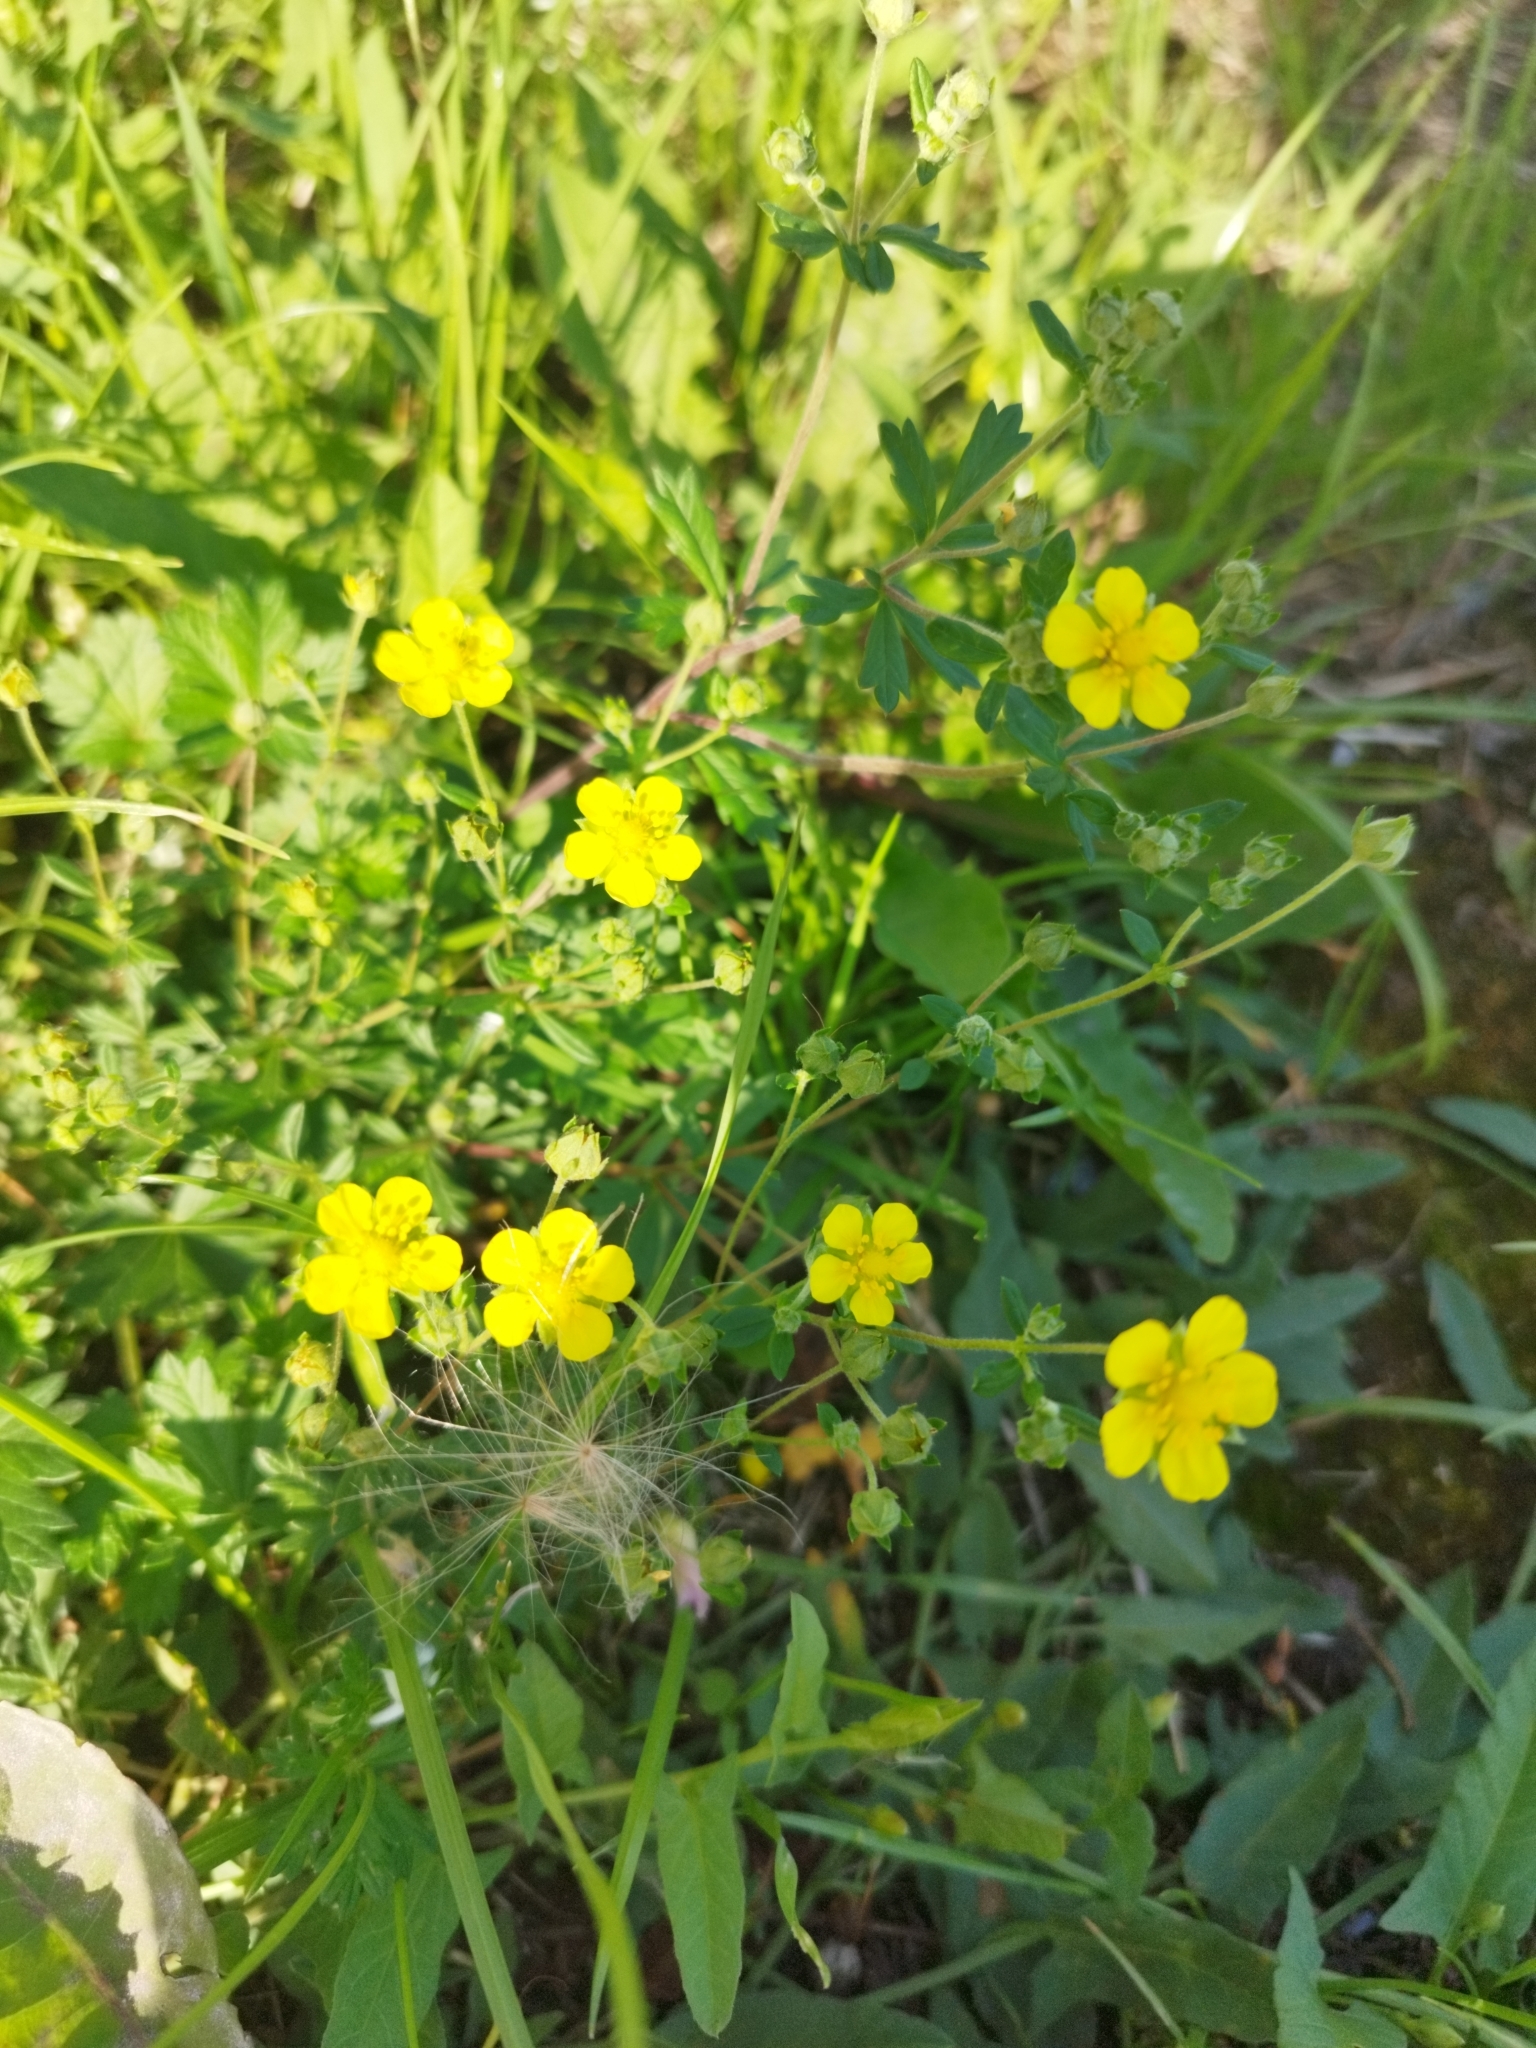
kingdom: Plantae
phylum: Tracheophyta
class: Magnoliopsida
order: Rosales
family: Rosaceae
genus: Potentilla
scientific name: Potentilla argentea
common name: Hoary cinquefoil
